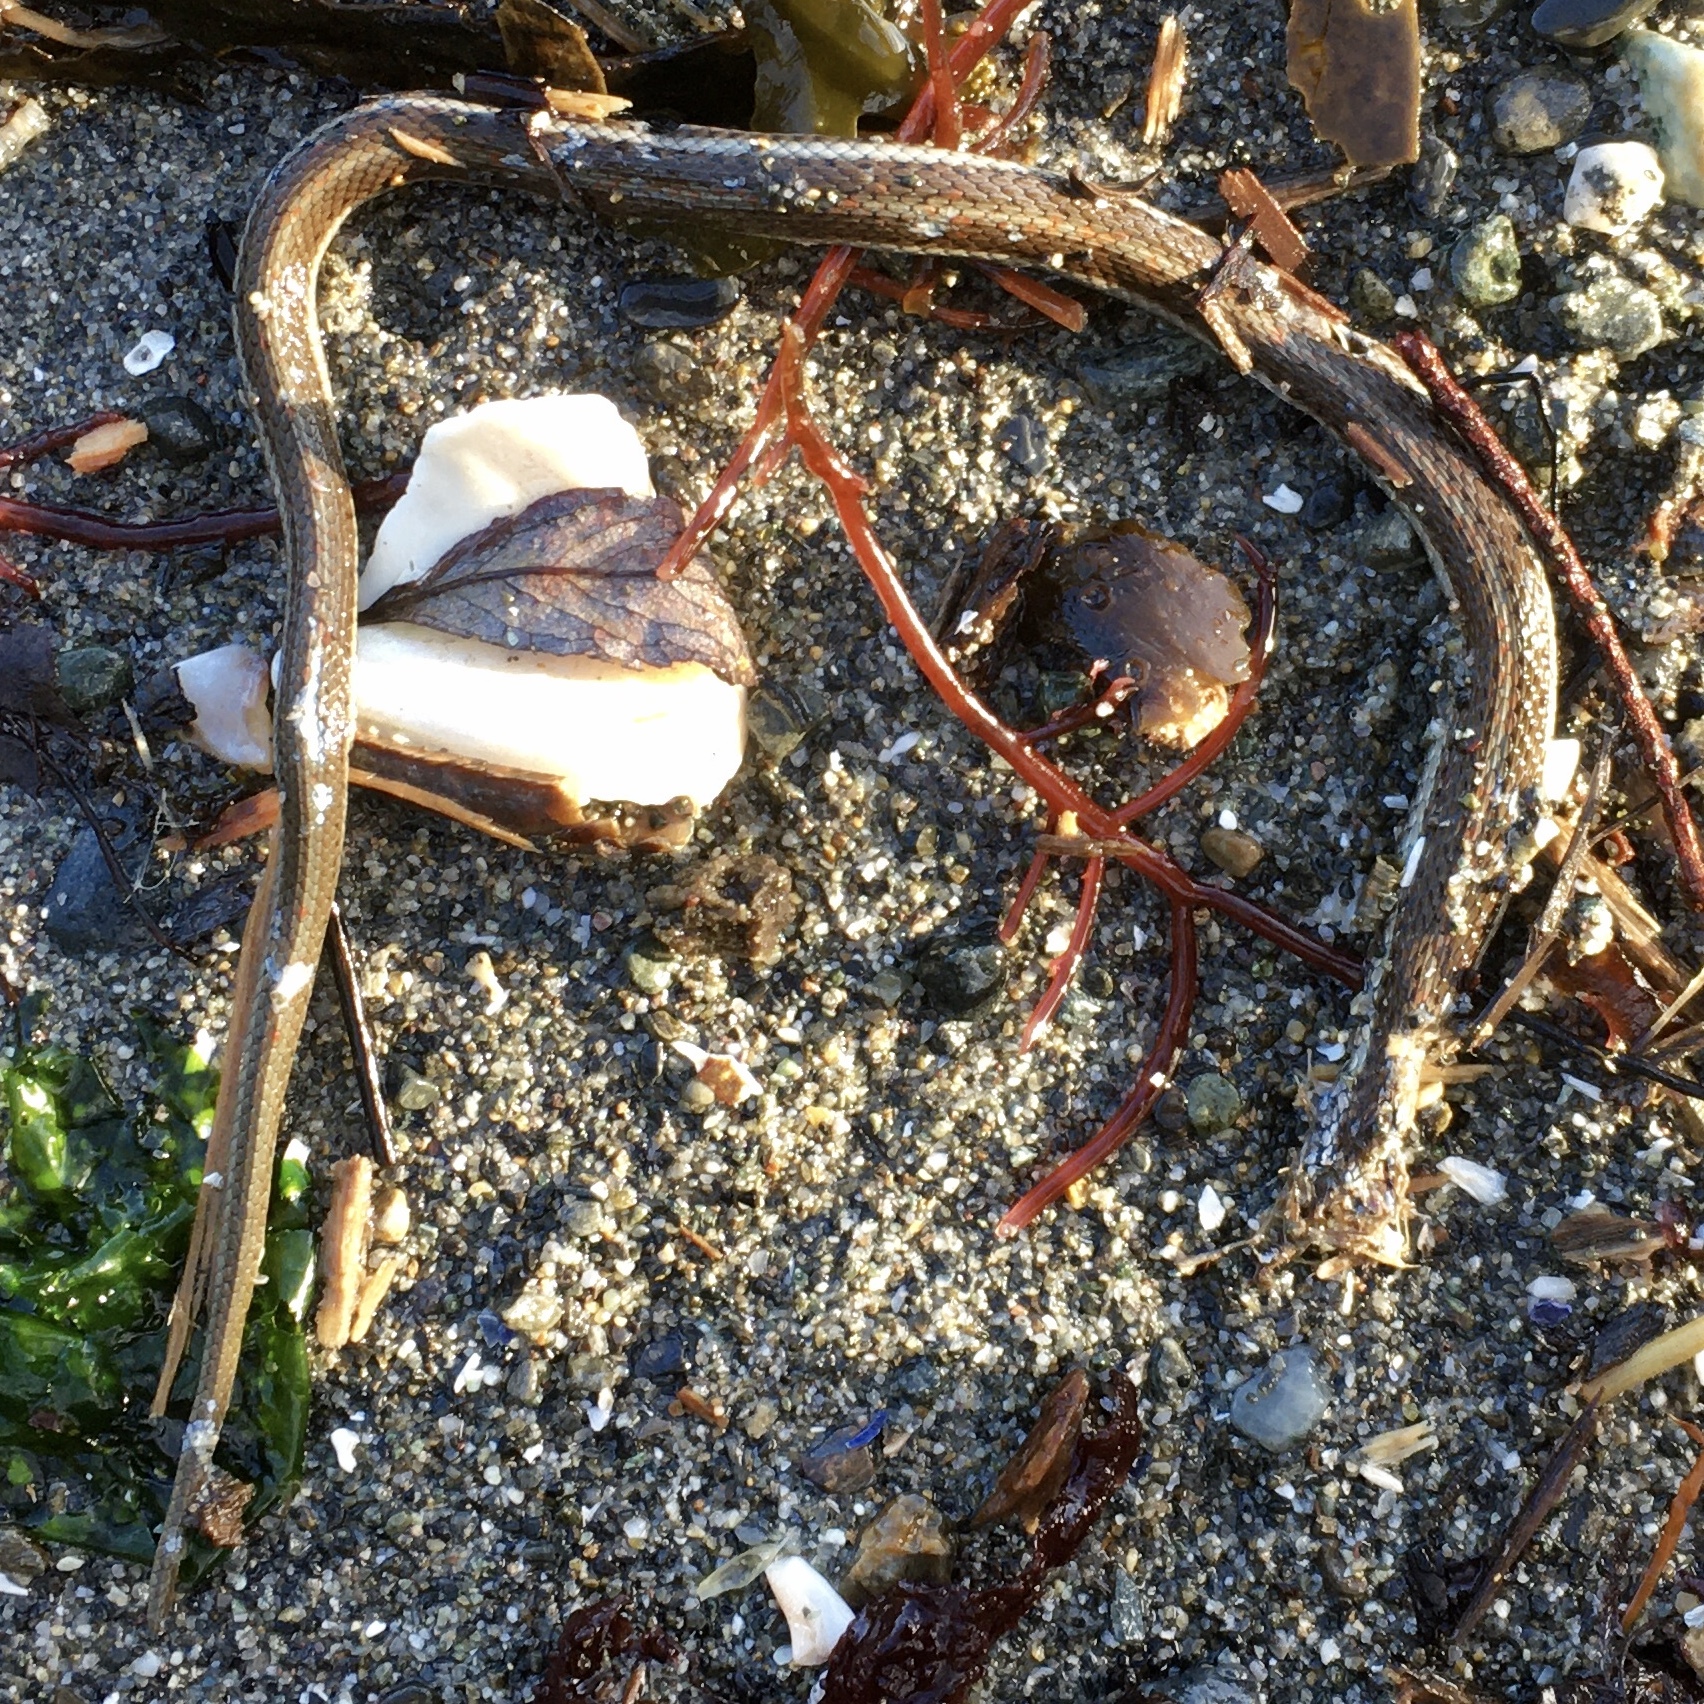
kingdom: Animalia
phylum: Chordata
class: Squamata
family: Colubridae
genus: Thamnophis
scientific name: Thamnophis ordinoides
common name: Northwestern garter snake
